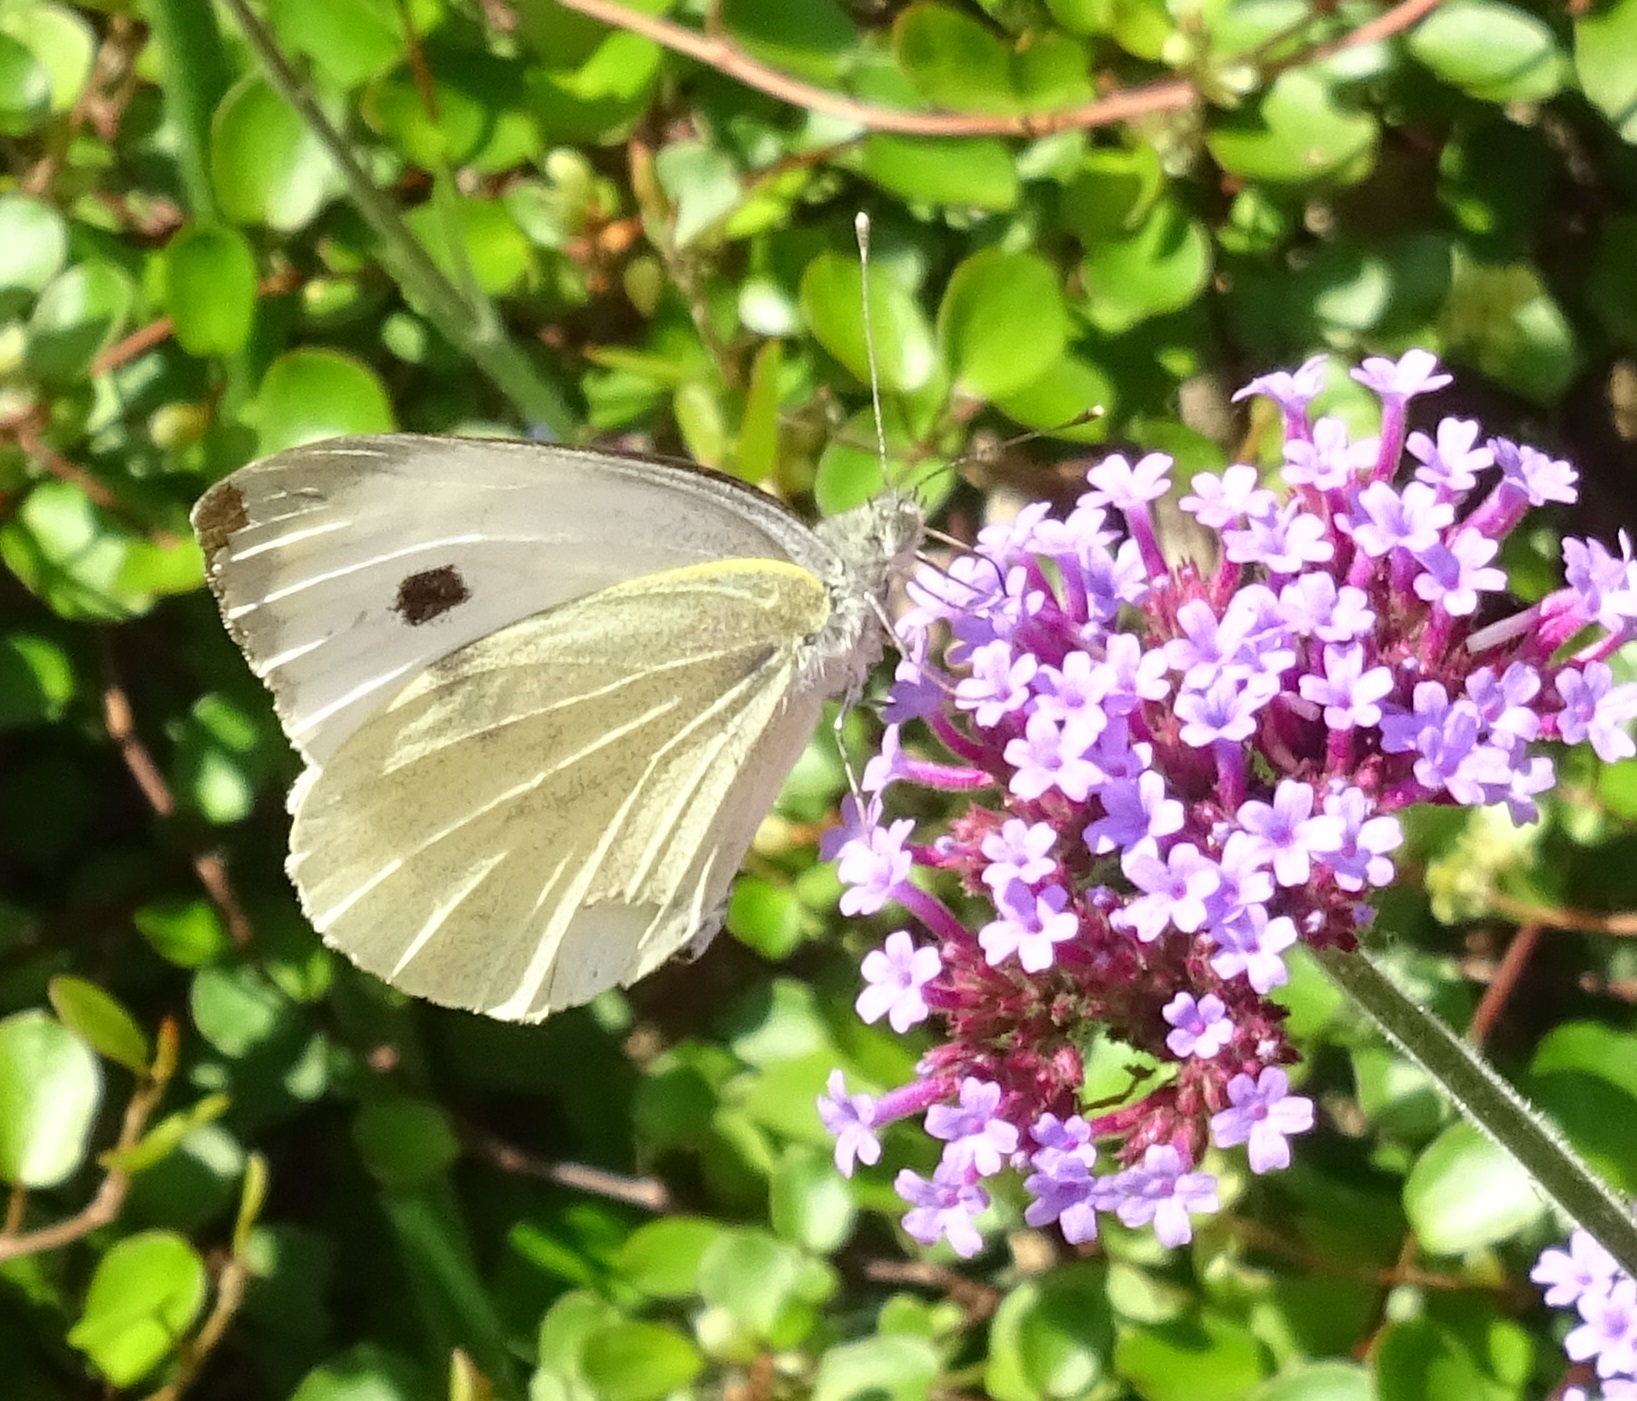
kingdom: Animalia
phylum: Arthropoda
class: Insecta
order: Lepidoptera
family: Pieridae
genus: Pieris
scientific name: Pieris brassicae
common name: Large white
